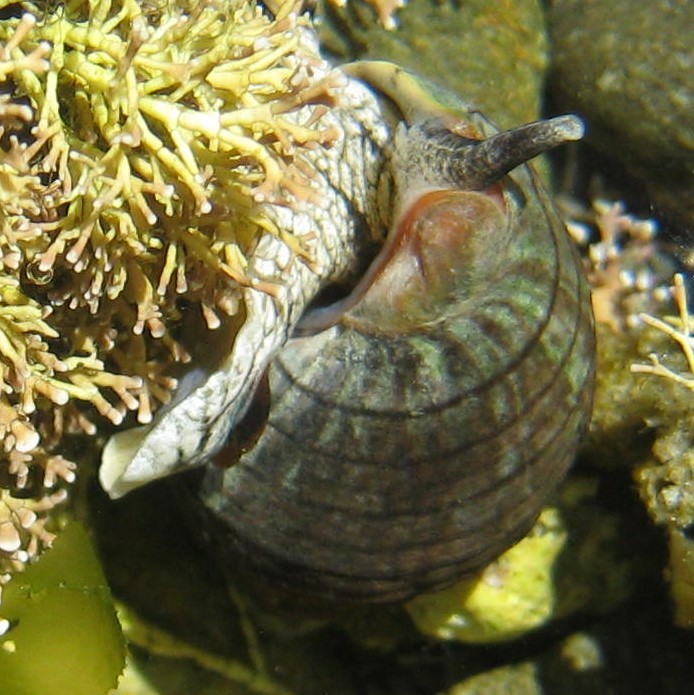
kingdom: Animalia
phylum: Mollusca
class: Gastropoda
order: Neogastropoda
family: Cominellidae
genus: Cominella
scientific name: Cominella virgata
